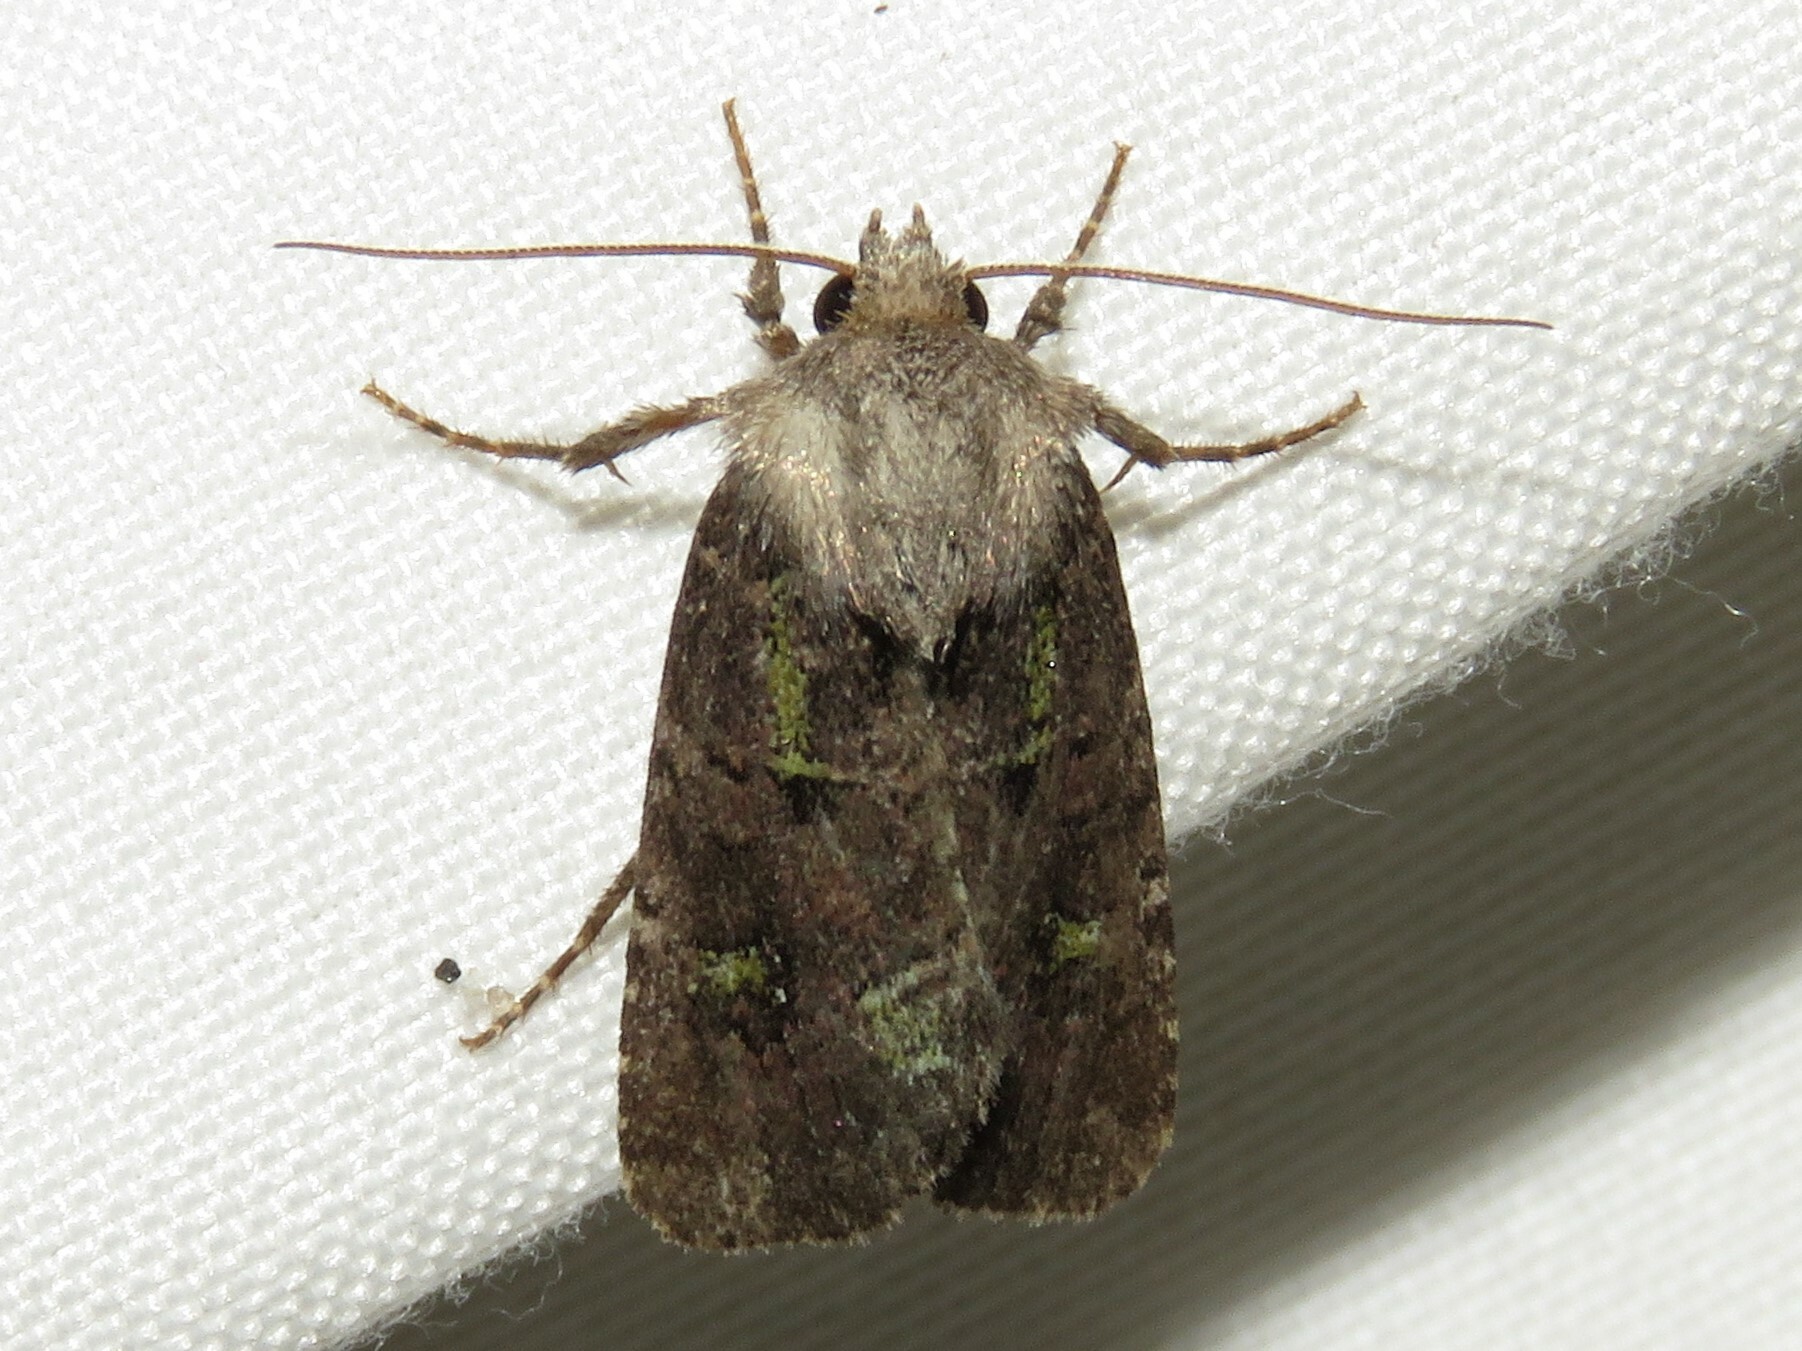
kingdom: Animalia
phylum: Arthropoda
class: Insecta
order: Lepidoptera
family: Noctuidae
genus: Lacinipolia
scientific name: Lacinipolia renigera
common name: Kidney-spotted minor
